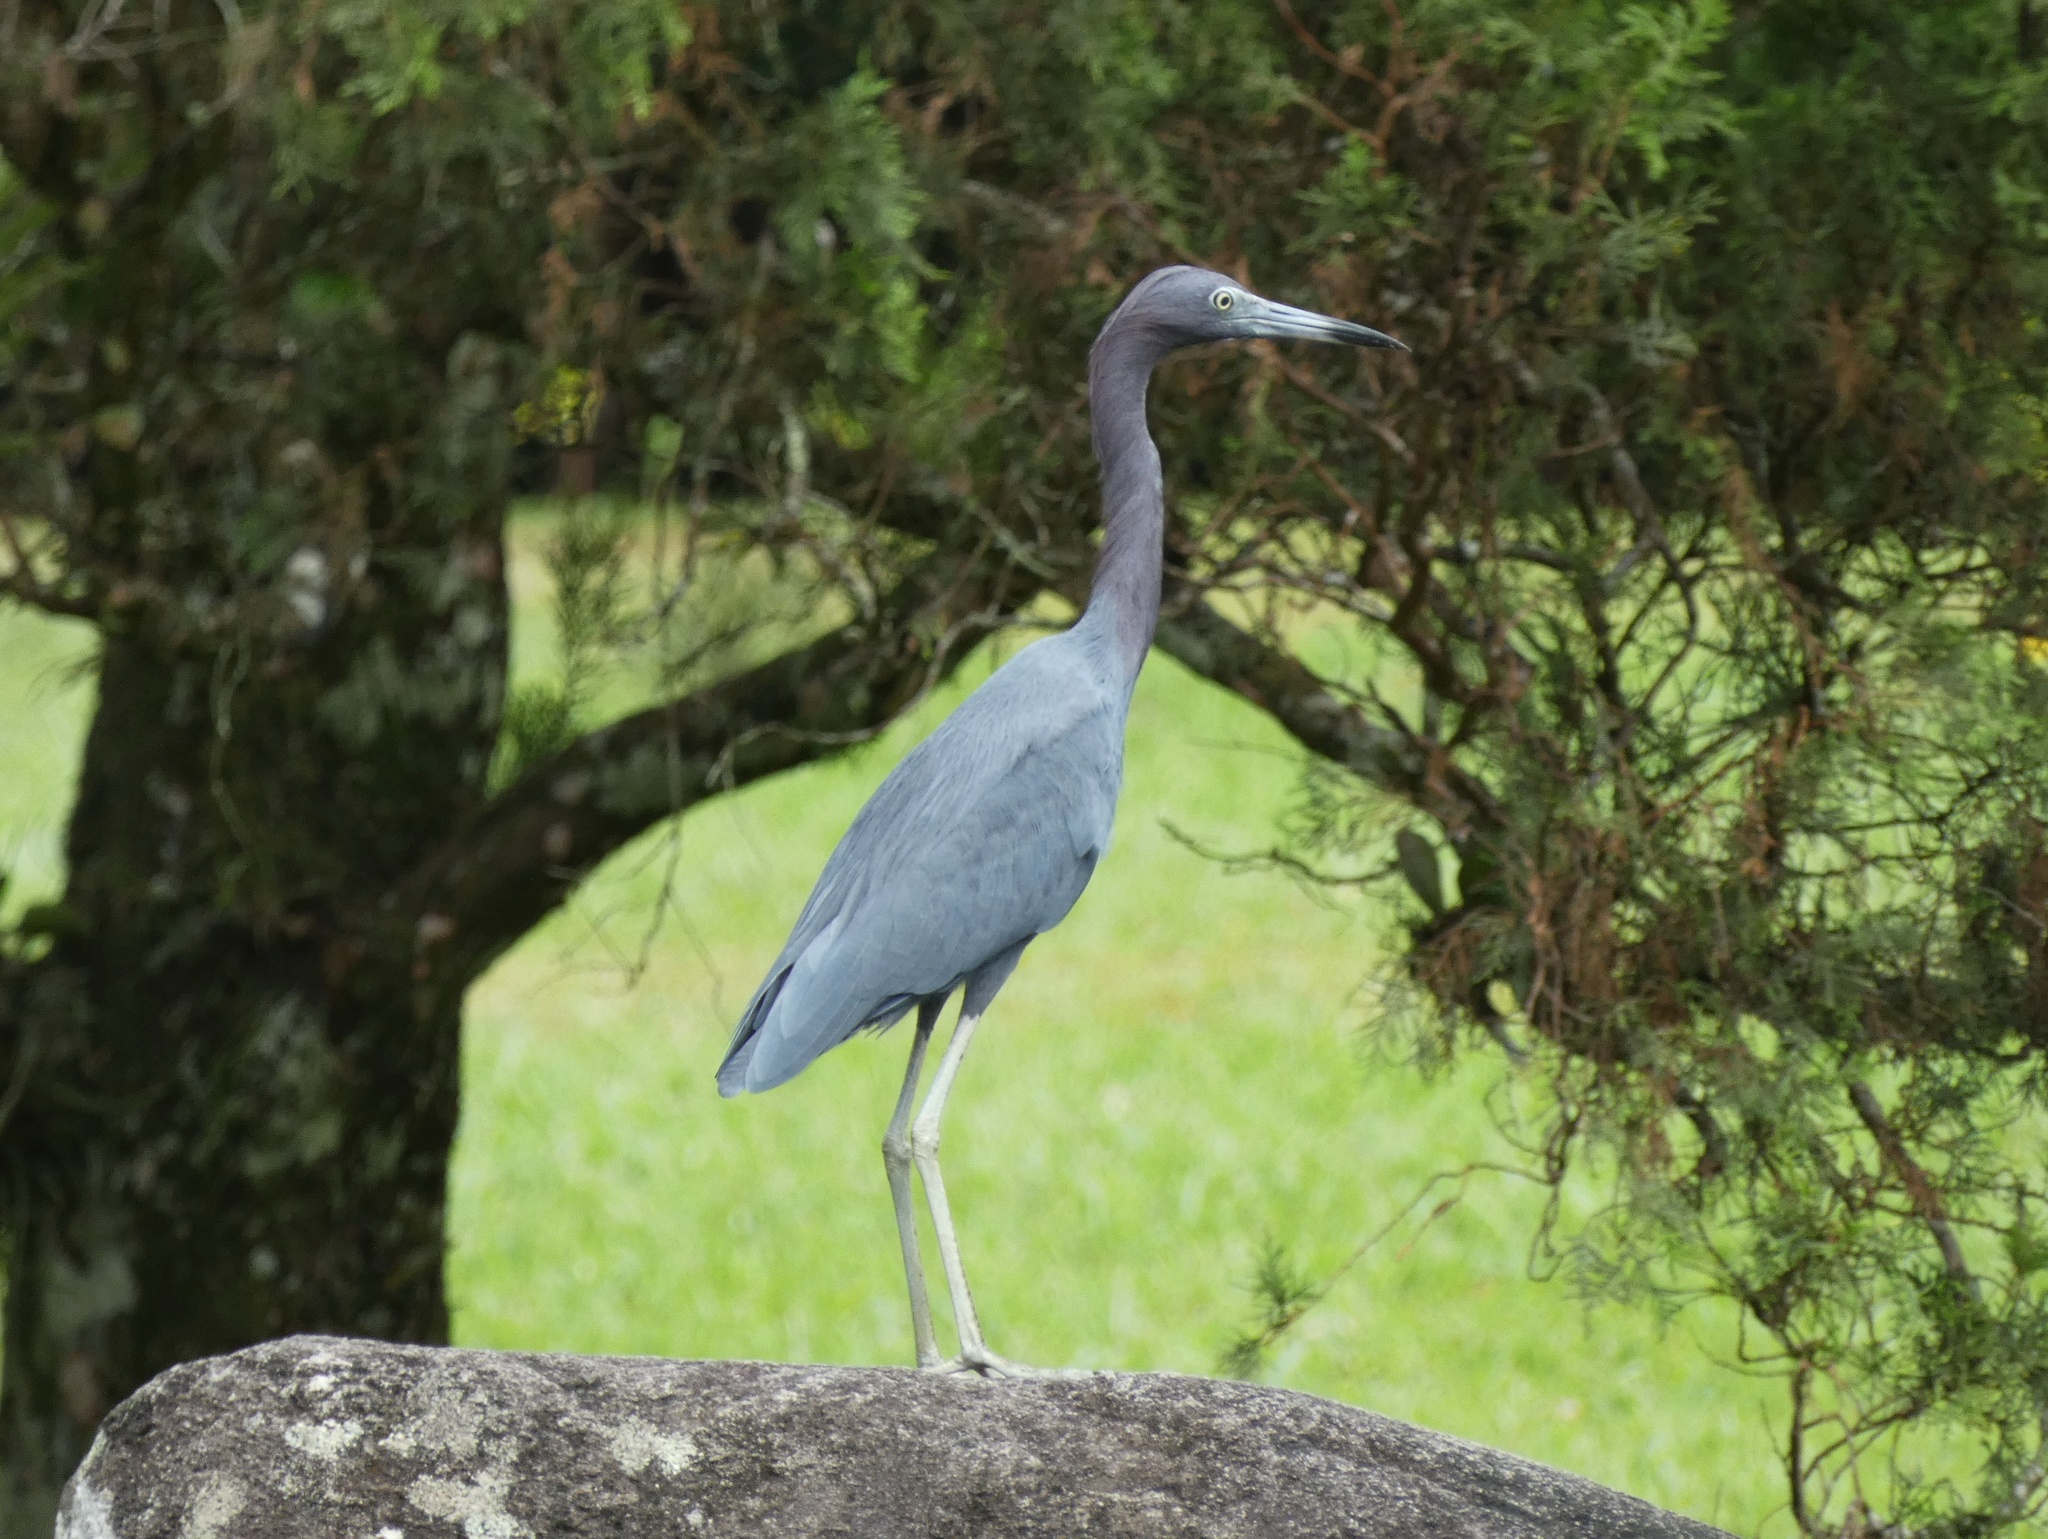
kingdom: Animalia
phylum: Chordata
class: Aves
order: Pelecaniformes
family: Ardeidae
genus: Egretta
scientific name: Egretta caerulea
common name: Little blue heron
